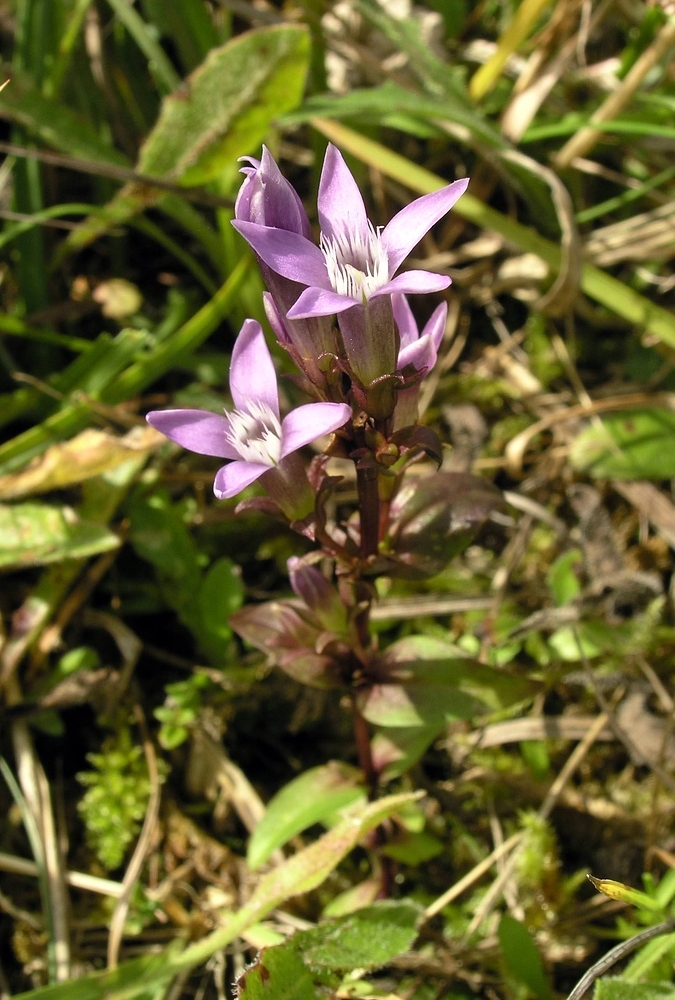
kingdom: Plantae
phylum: Tracheophyta
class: Magnoliopsida
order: Gentianales
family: Gentianaceae
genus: Gentianella
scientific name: Gentianella germanica
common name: Chiltern-gentian
